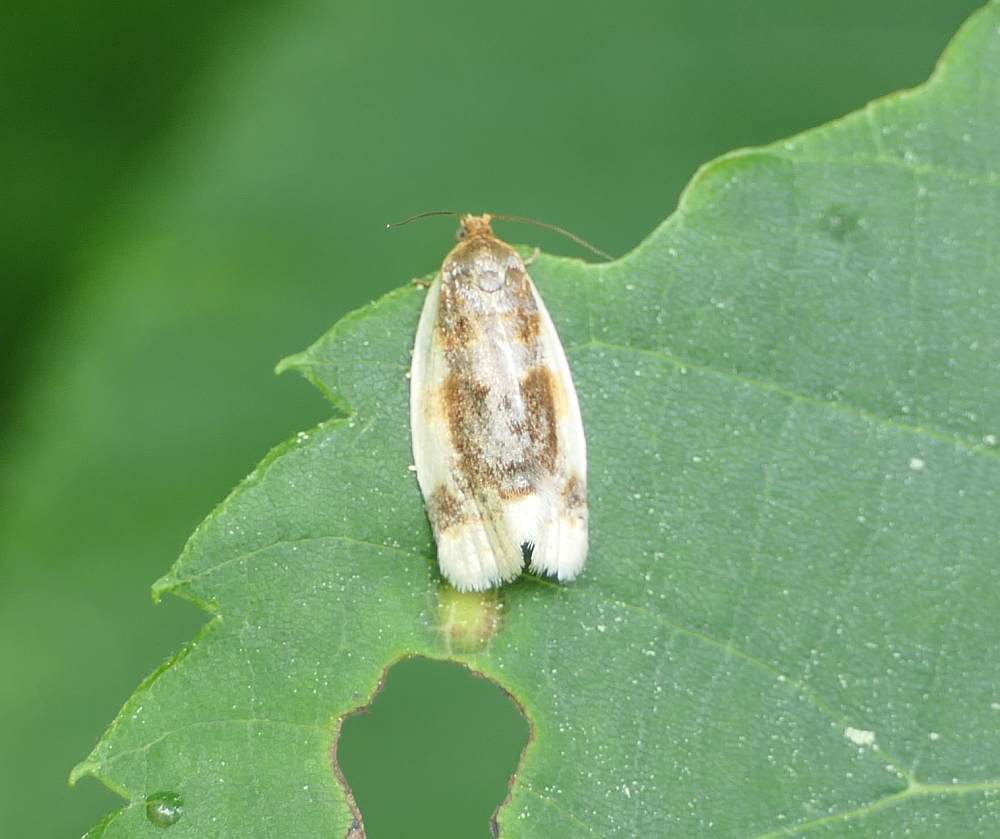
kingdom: Animalia
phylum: Arthropoda
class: Insecta
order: Lepidoptera
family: Tortricidae
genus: Clepsis
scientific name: Clepsis melaleucanus
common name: American apple tortrix
